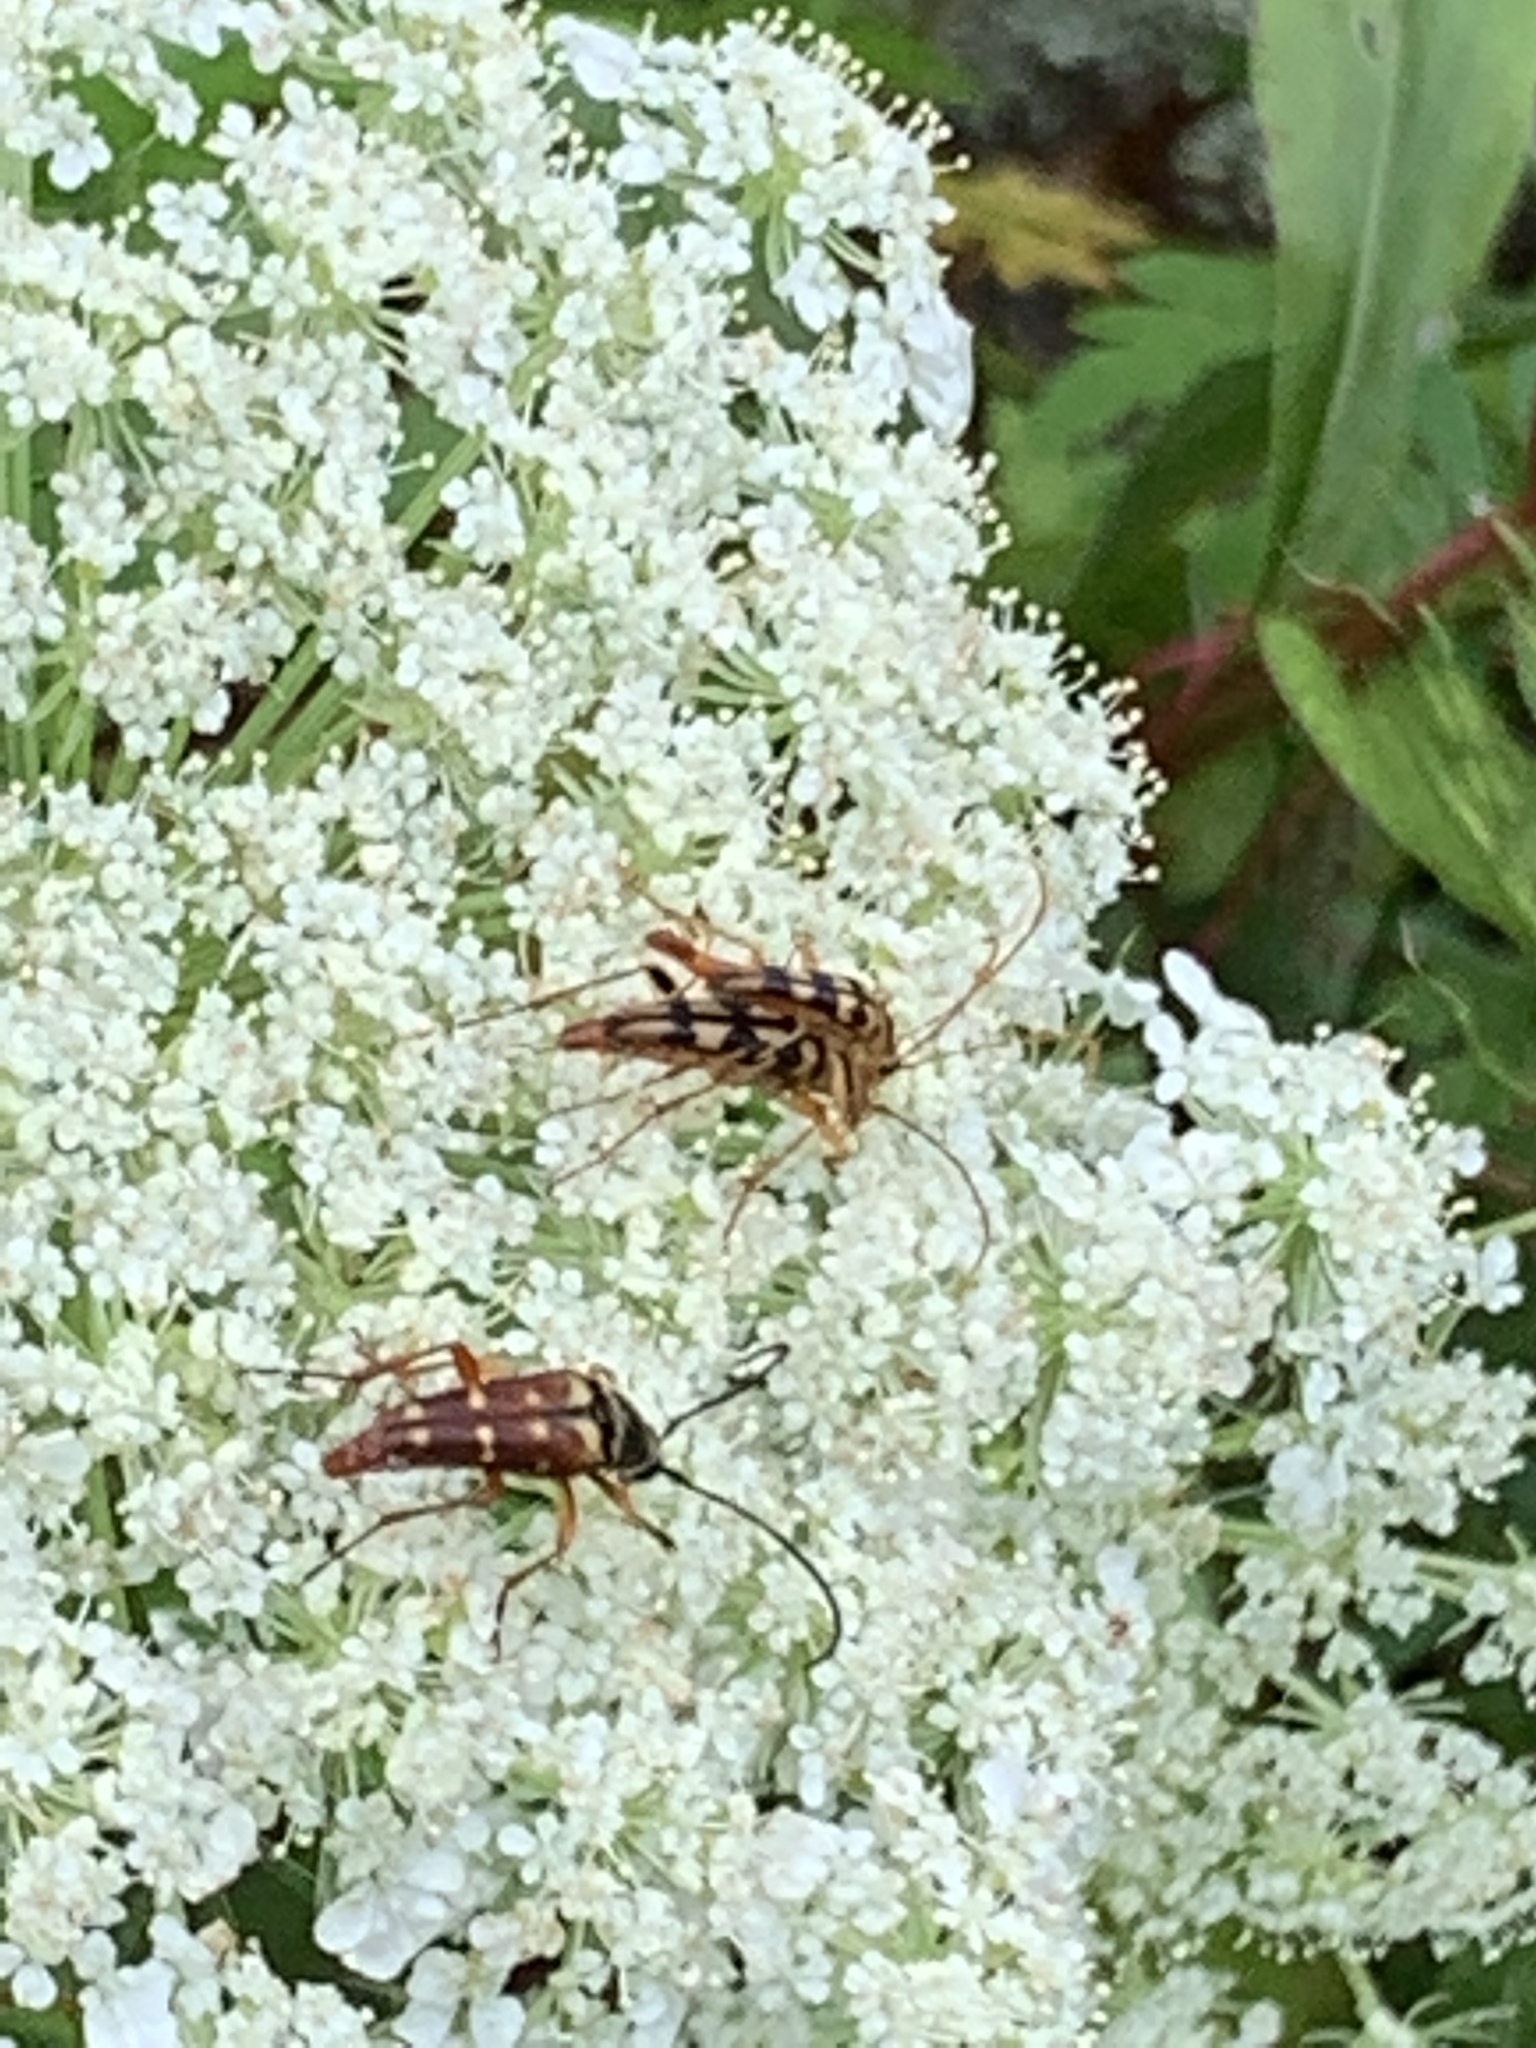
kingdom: Animalia
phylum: Arthropoda
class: Insecta
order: Coleoptera
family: Cerambycidae
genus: Typocerus
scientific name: Typocerus velutinus
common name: Banded longhorn beetle
